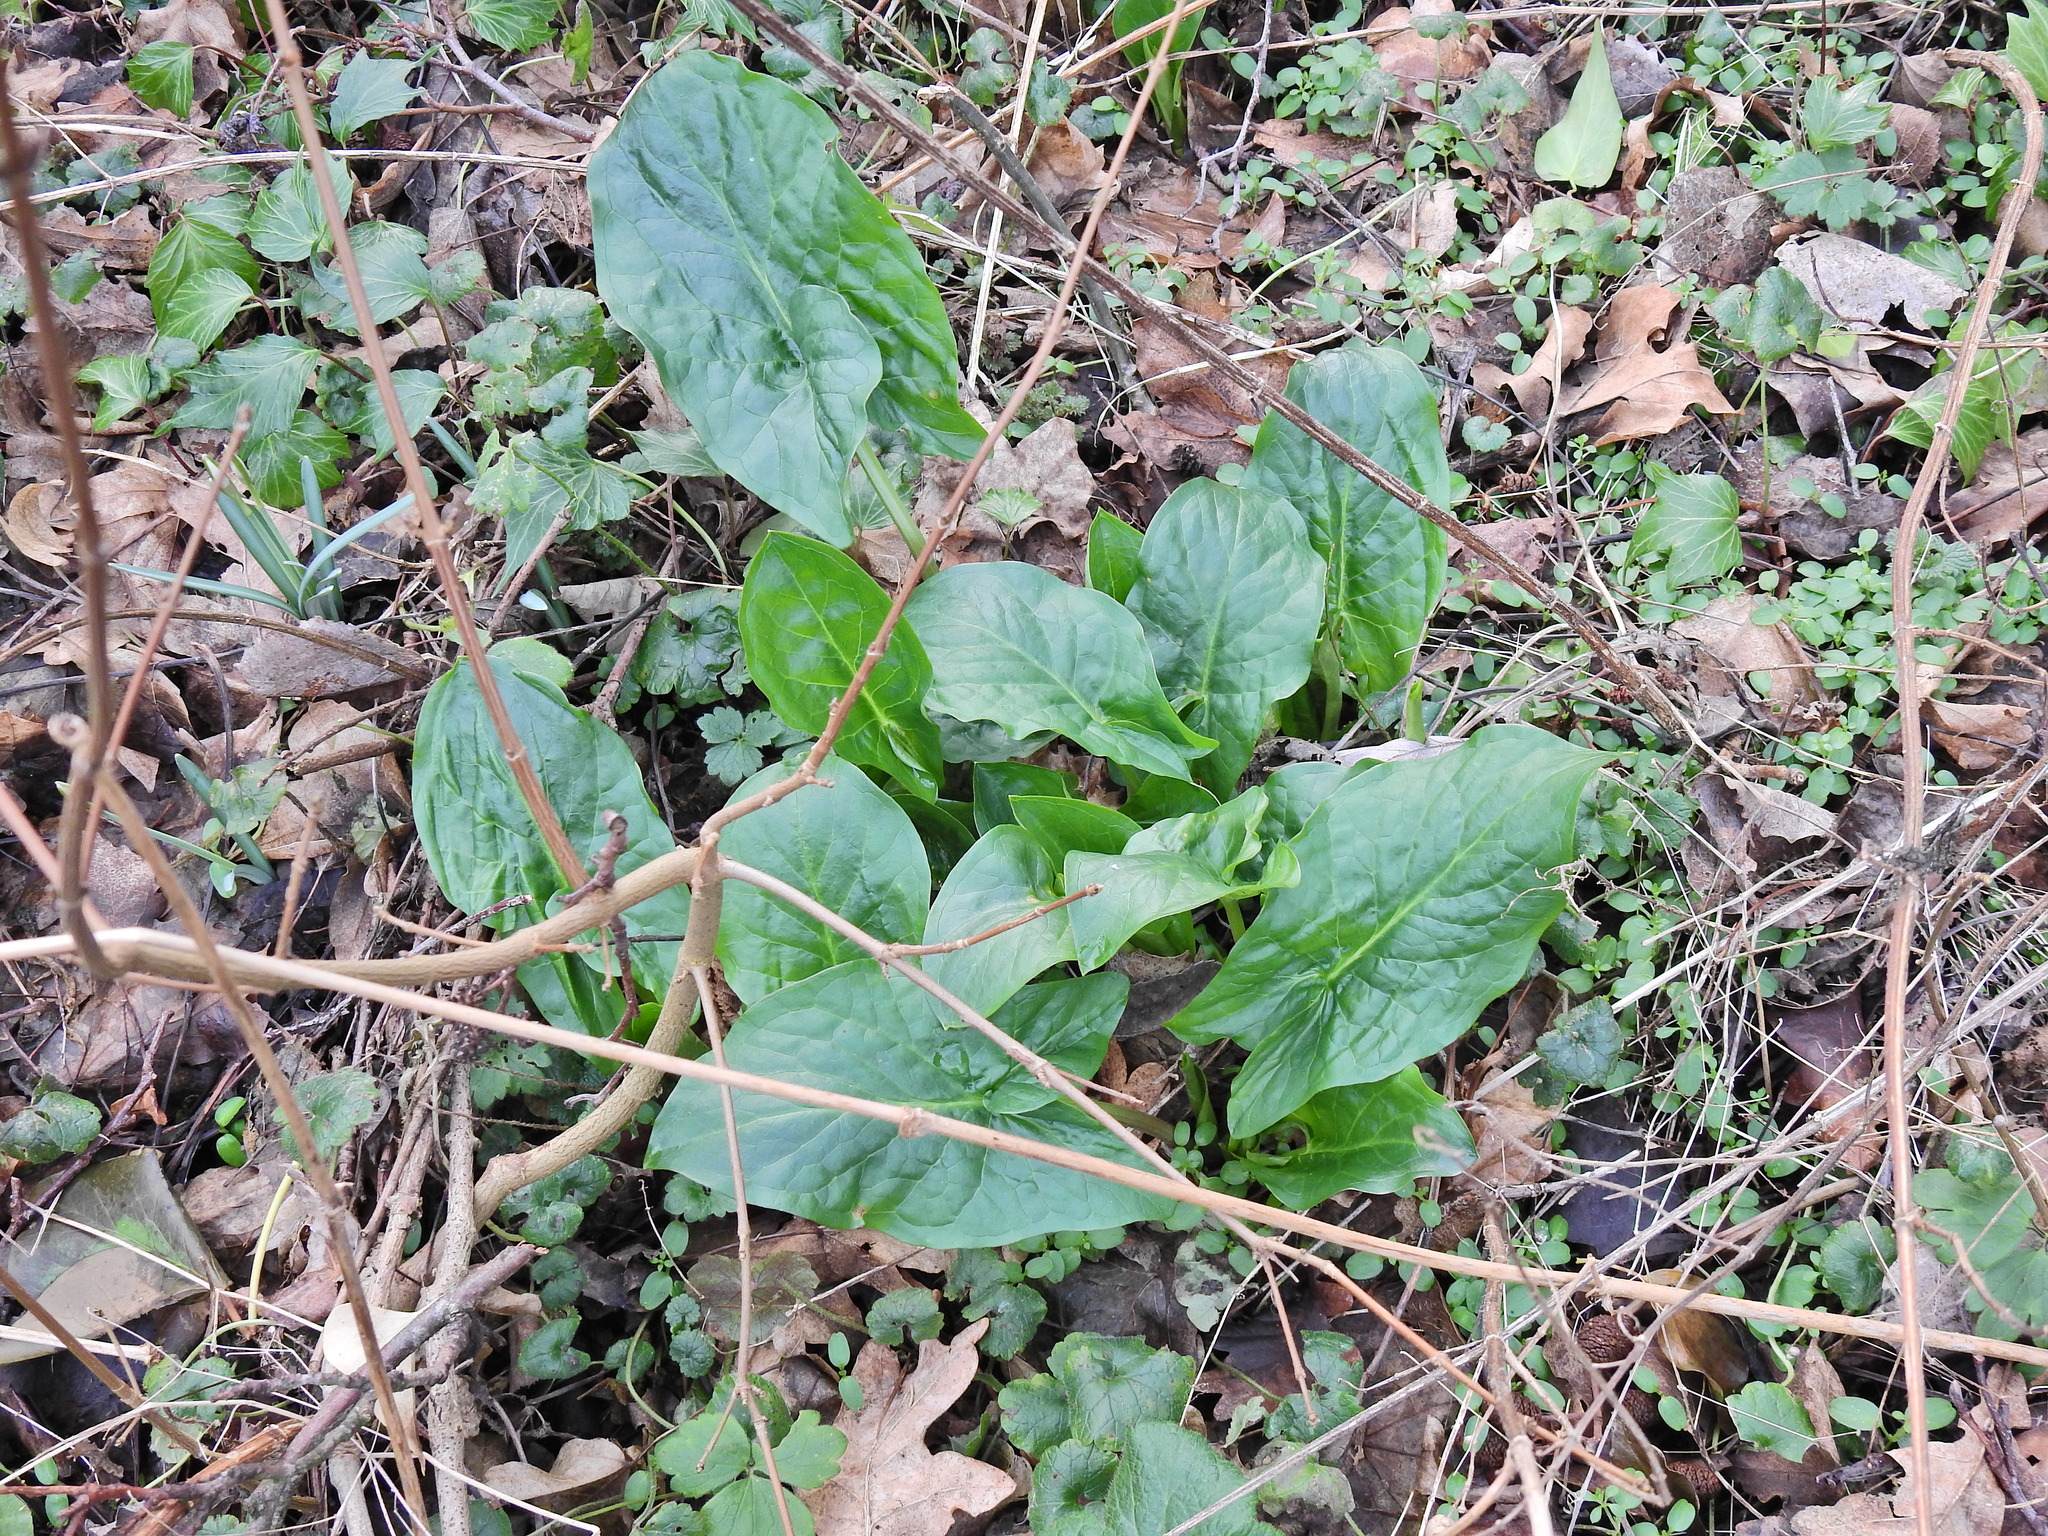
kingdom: Plantae
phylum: Tracheophyta
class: Liliopsida
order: Alismatales
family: Araceae
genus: Arum
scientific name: Arum maculatum
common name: Lords-and-ladies
